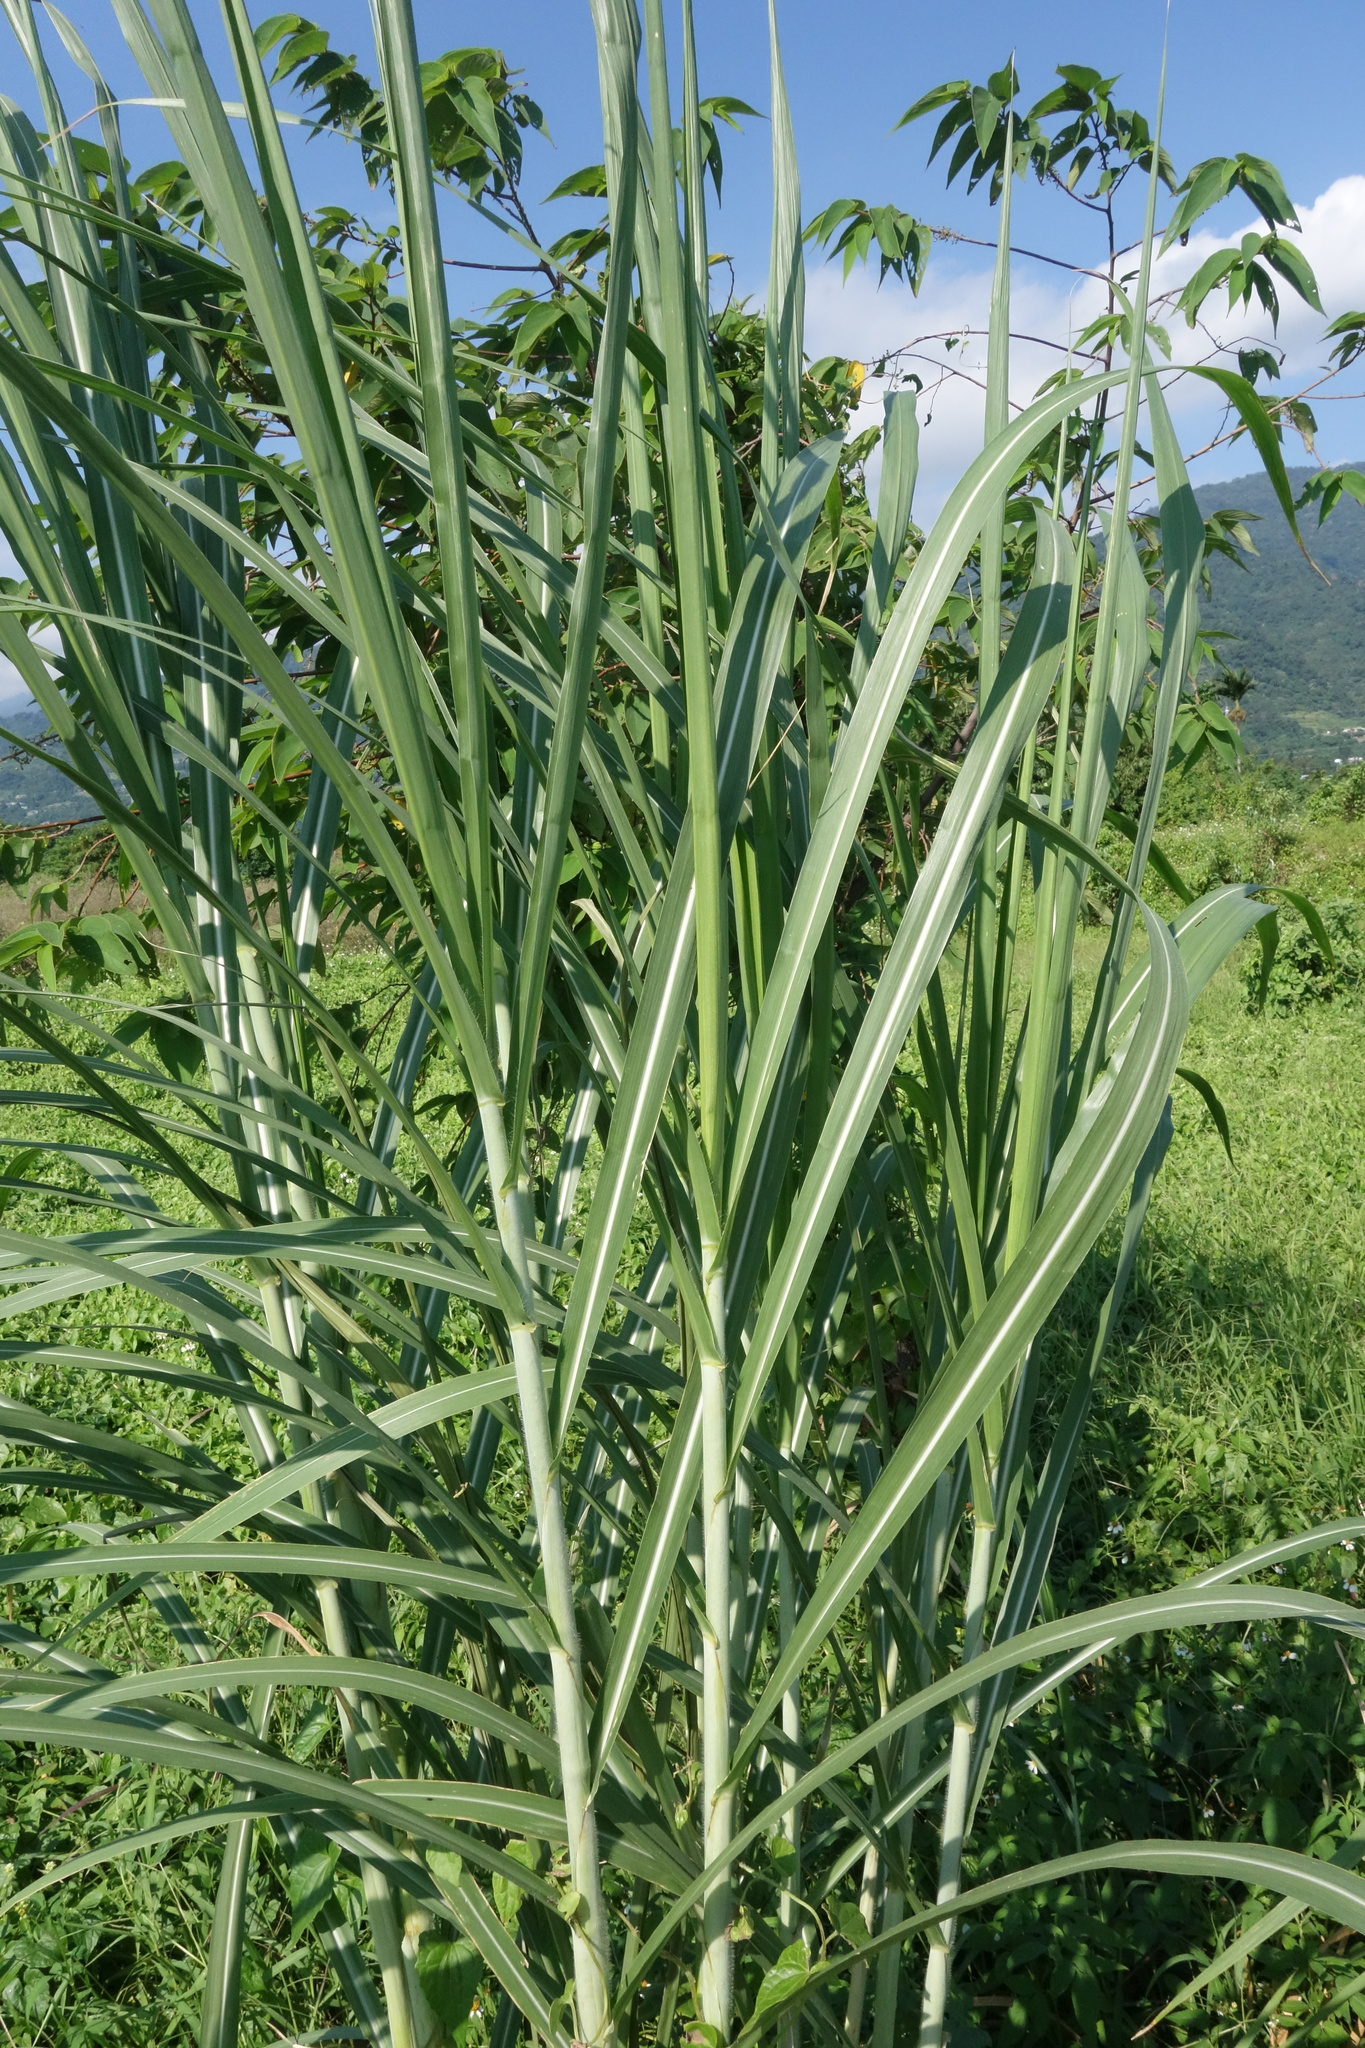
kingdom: Plantae
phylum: Tracheophyta
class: Liliopsida
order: Poales
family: Poaceae
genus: Miscanthus
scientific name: Miscanthus sinensis
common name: Chinese silvergrass
